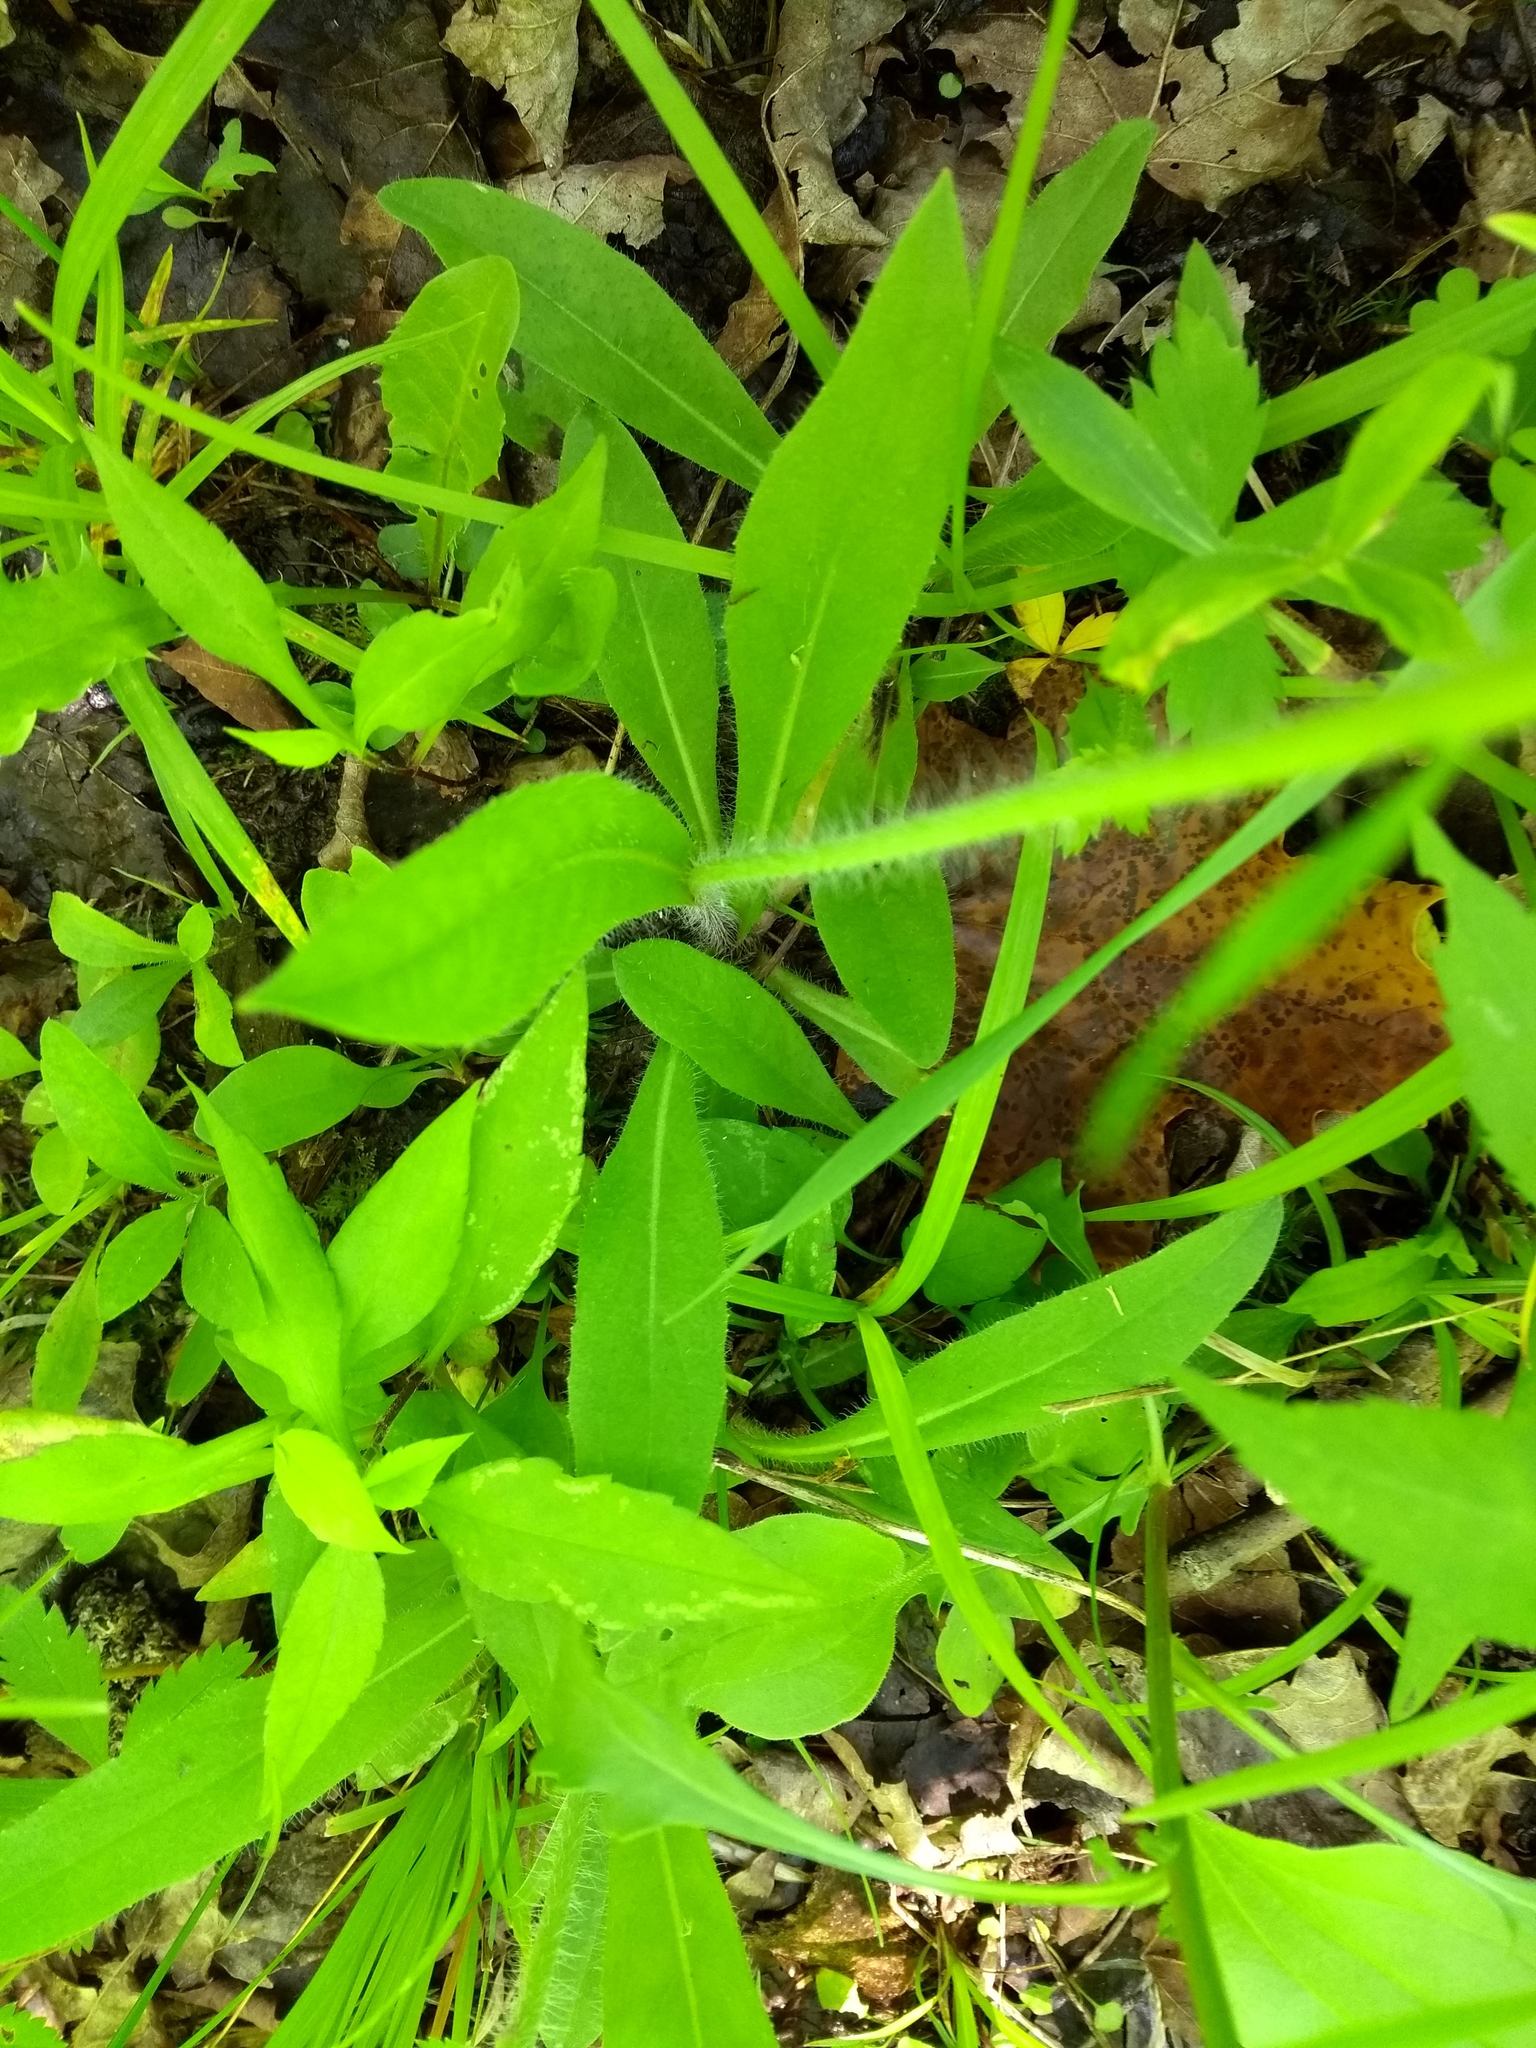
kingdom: Plantae
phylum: Tracheophyta
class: Magnoliopsida
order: Asterales
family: Asteraceae
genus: Pilosella
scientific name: Pilosella caespitosa
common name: Yellow fox-and-cubs
